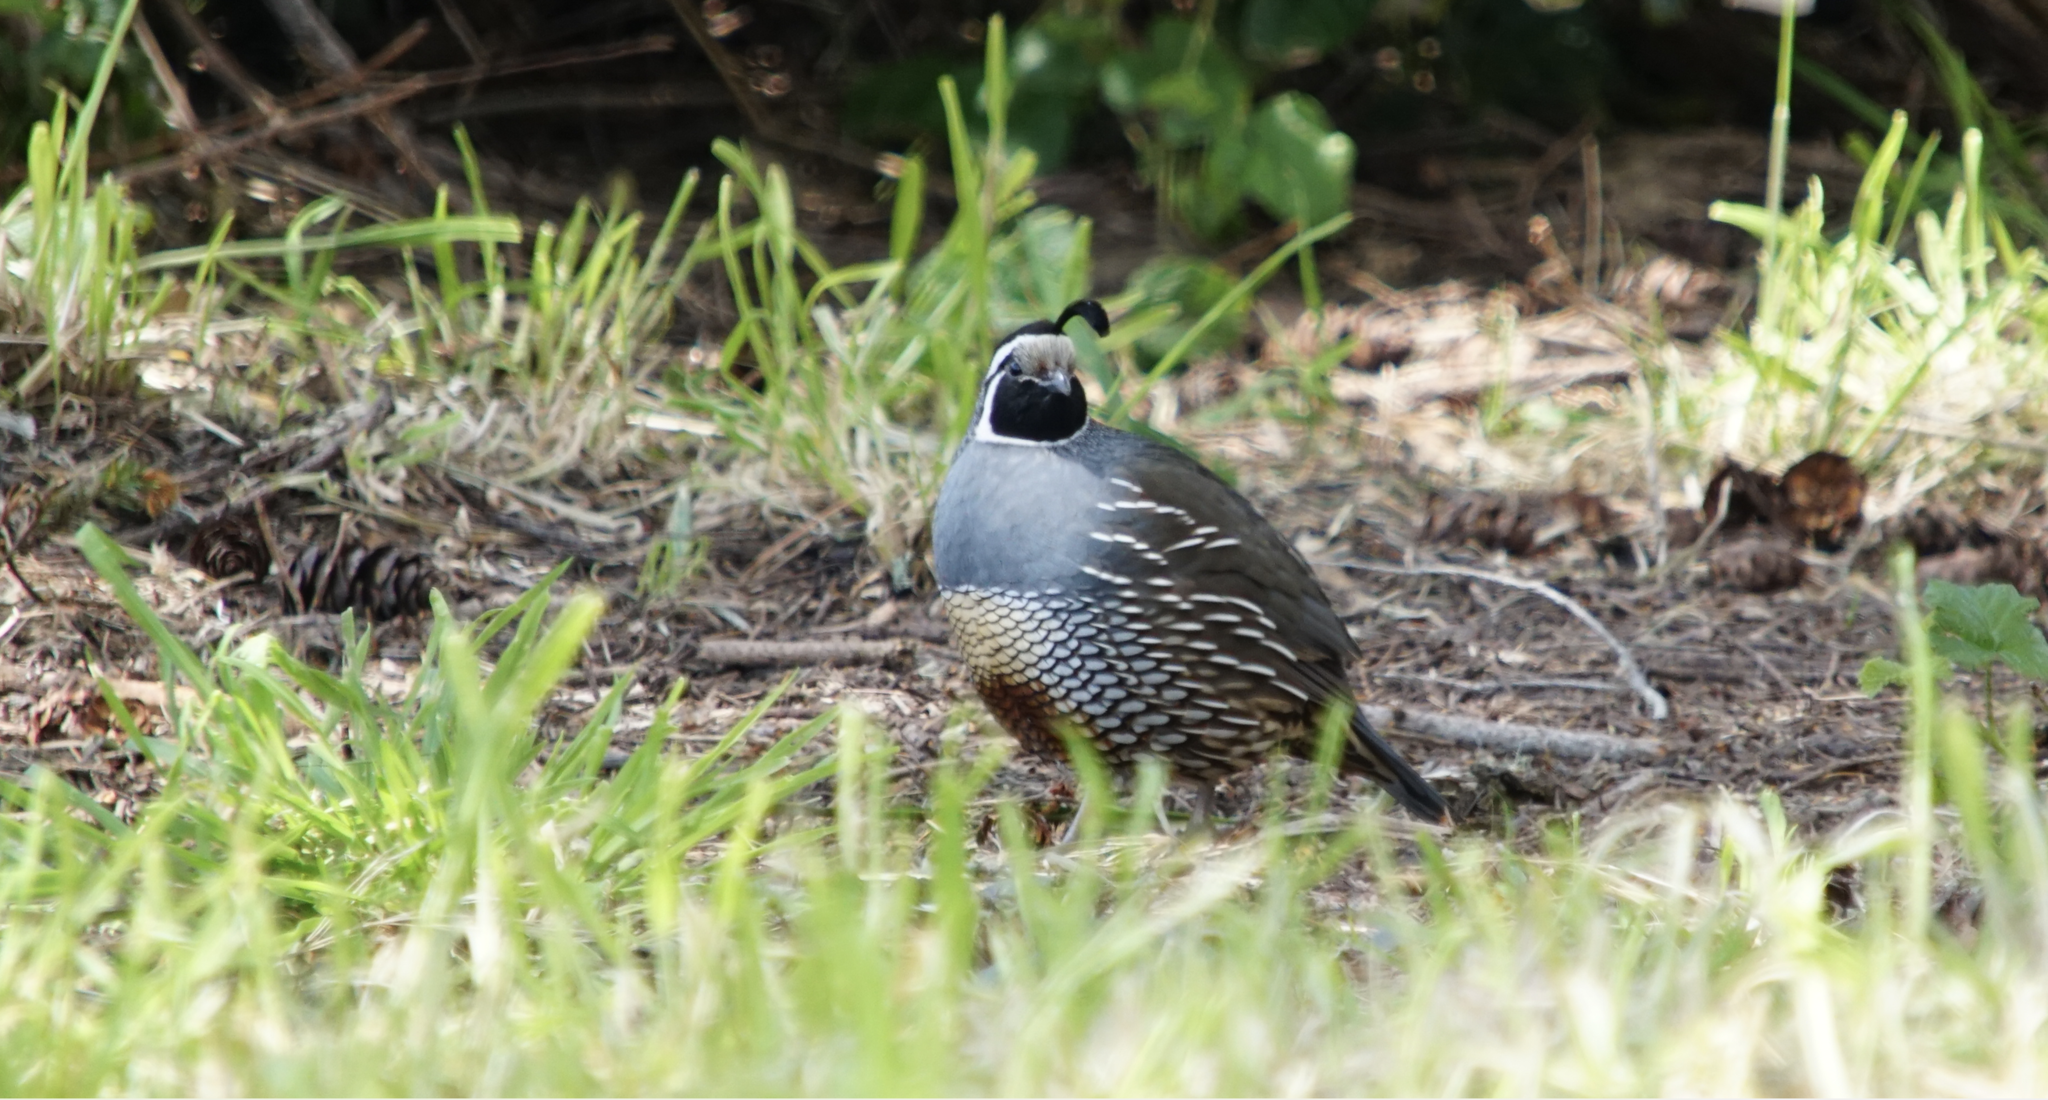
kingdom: Animalia
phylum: Chordata
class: Aves
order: Galliformes
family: Odontophoridae
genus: Callipepla
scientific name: Callipepla californica
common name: California quail
